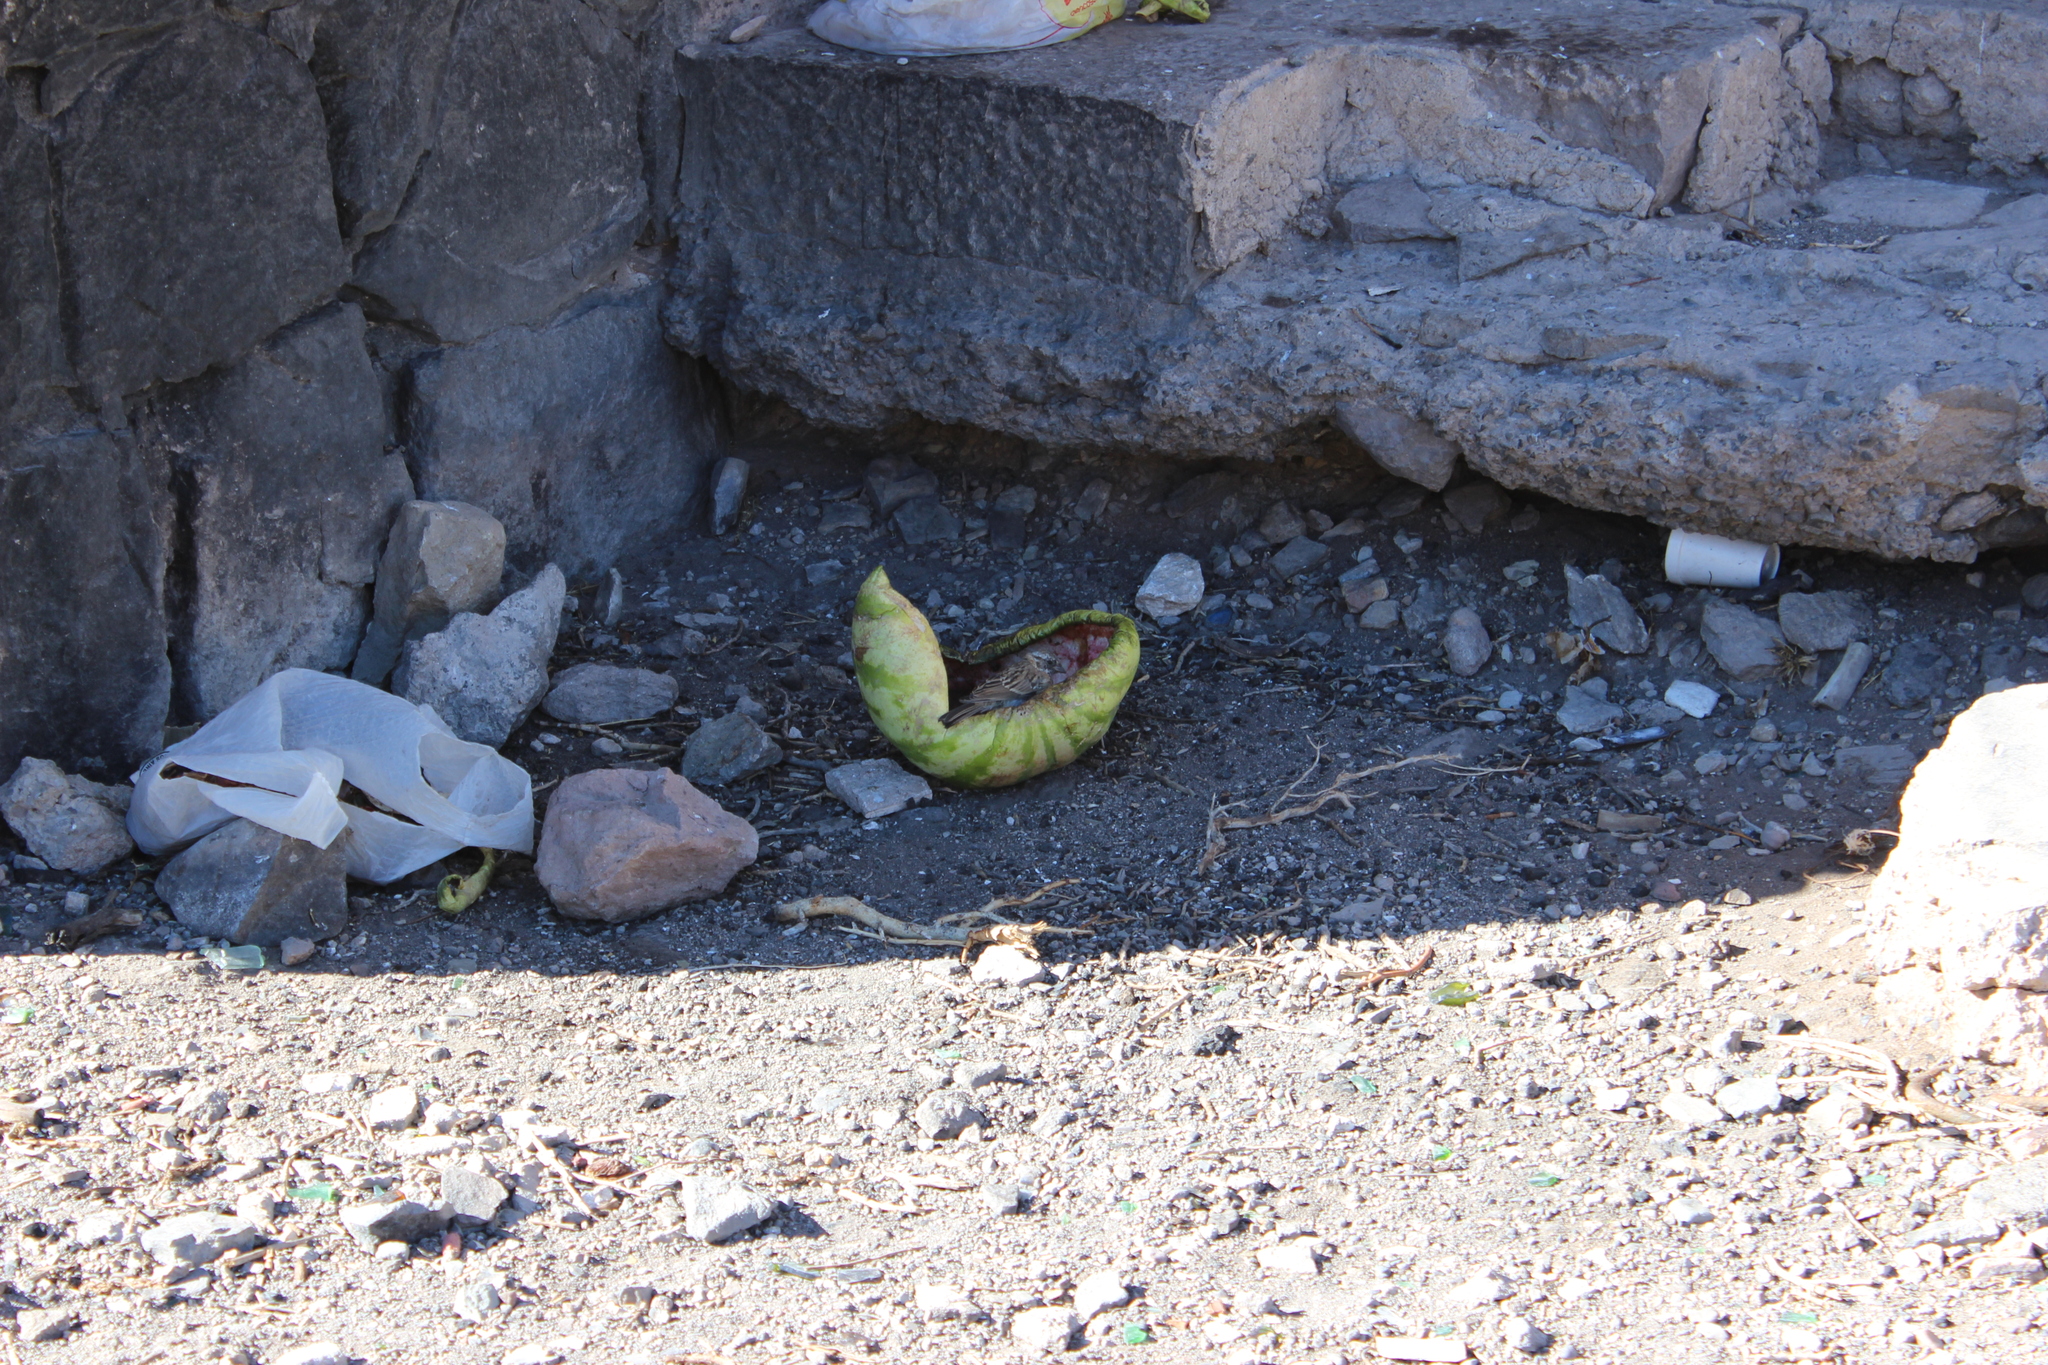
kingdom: Animalia
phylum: Chordata
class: Aves
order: Passeriformes
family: Passerellidae
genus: Zonotrichia
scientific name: Zonotrichia capensis
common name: Rufous-collared sparrow
